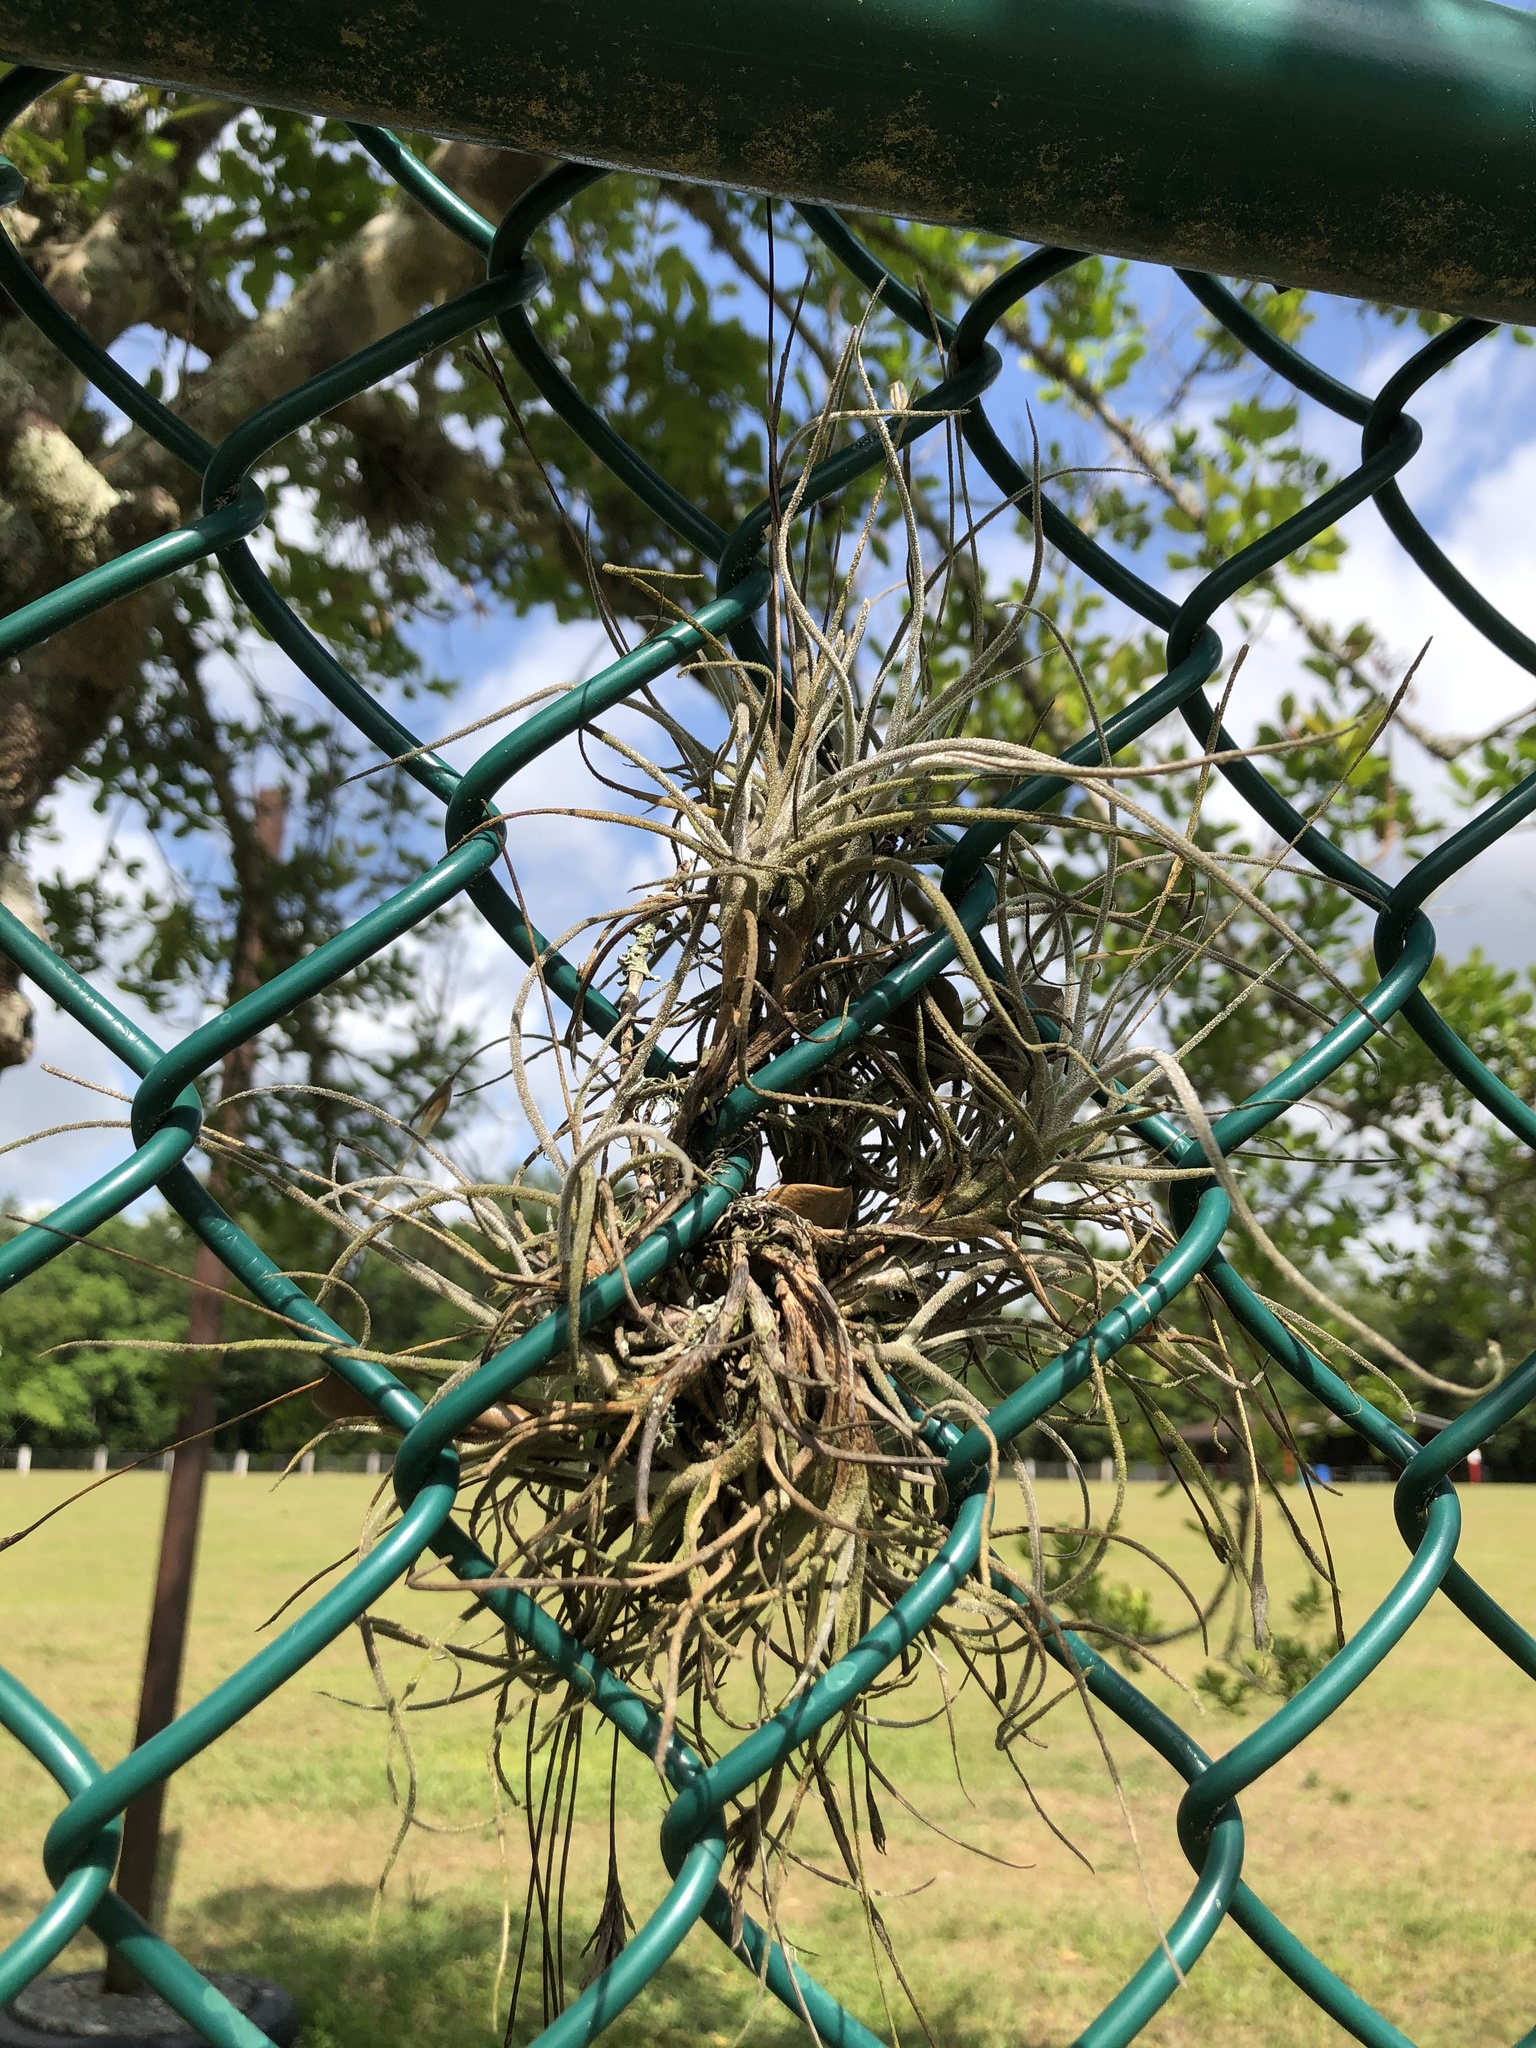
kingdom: Plantae
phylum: Tracheophyta
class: Liliopsida
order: Poales
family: Bromeliaceae
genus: Tillandsia
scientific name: Tillandsia recurvata
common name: Small ballmoss
